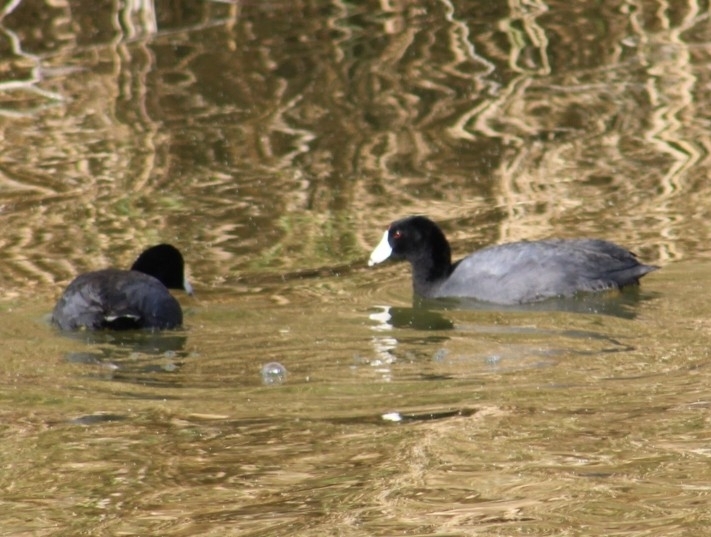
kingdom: Animalia
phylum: Chordata
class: Aves
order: Gruiformes
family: Rallidae
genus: Fulica
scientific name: Fulica americana
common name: American coot
